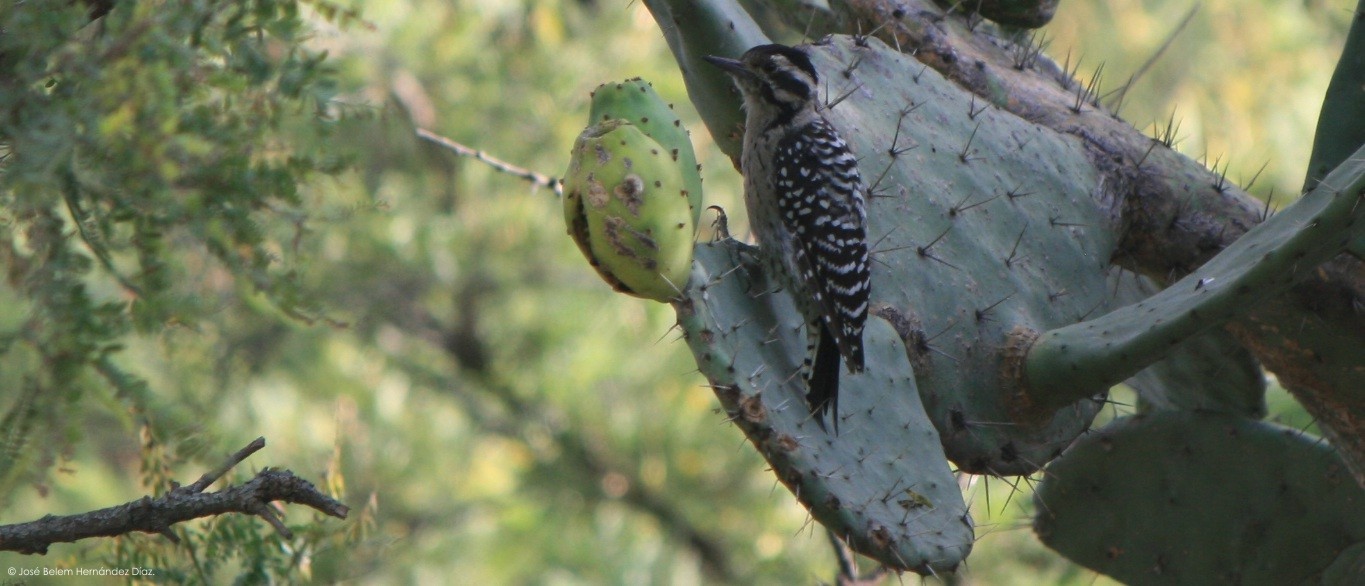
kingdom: Animalia
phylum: Chordata
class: Aves
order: Piciformes
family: Picidae
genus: Dryobates
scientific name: Dryobates scalaris
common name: Ladder-backed woodpecker
